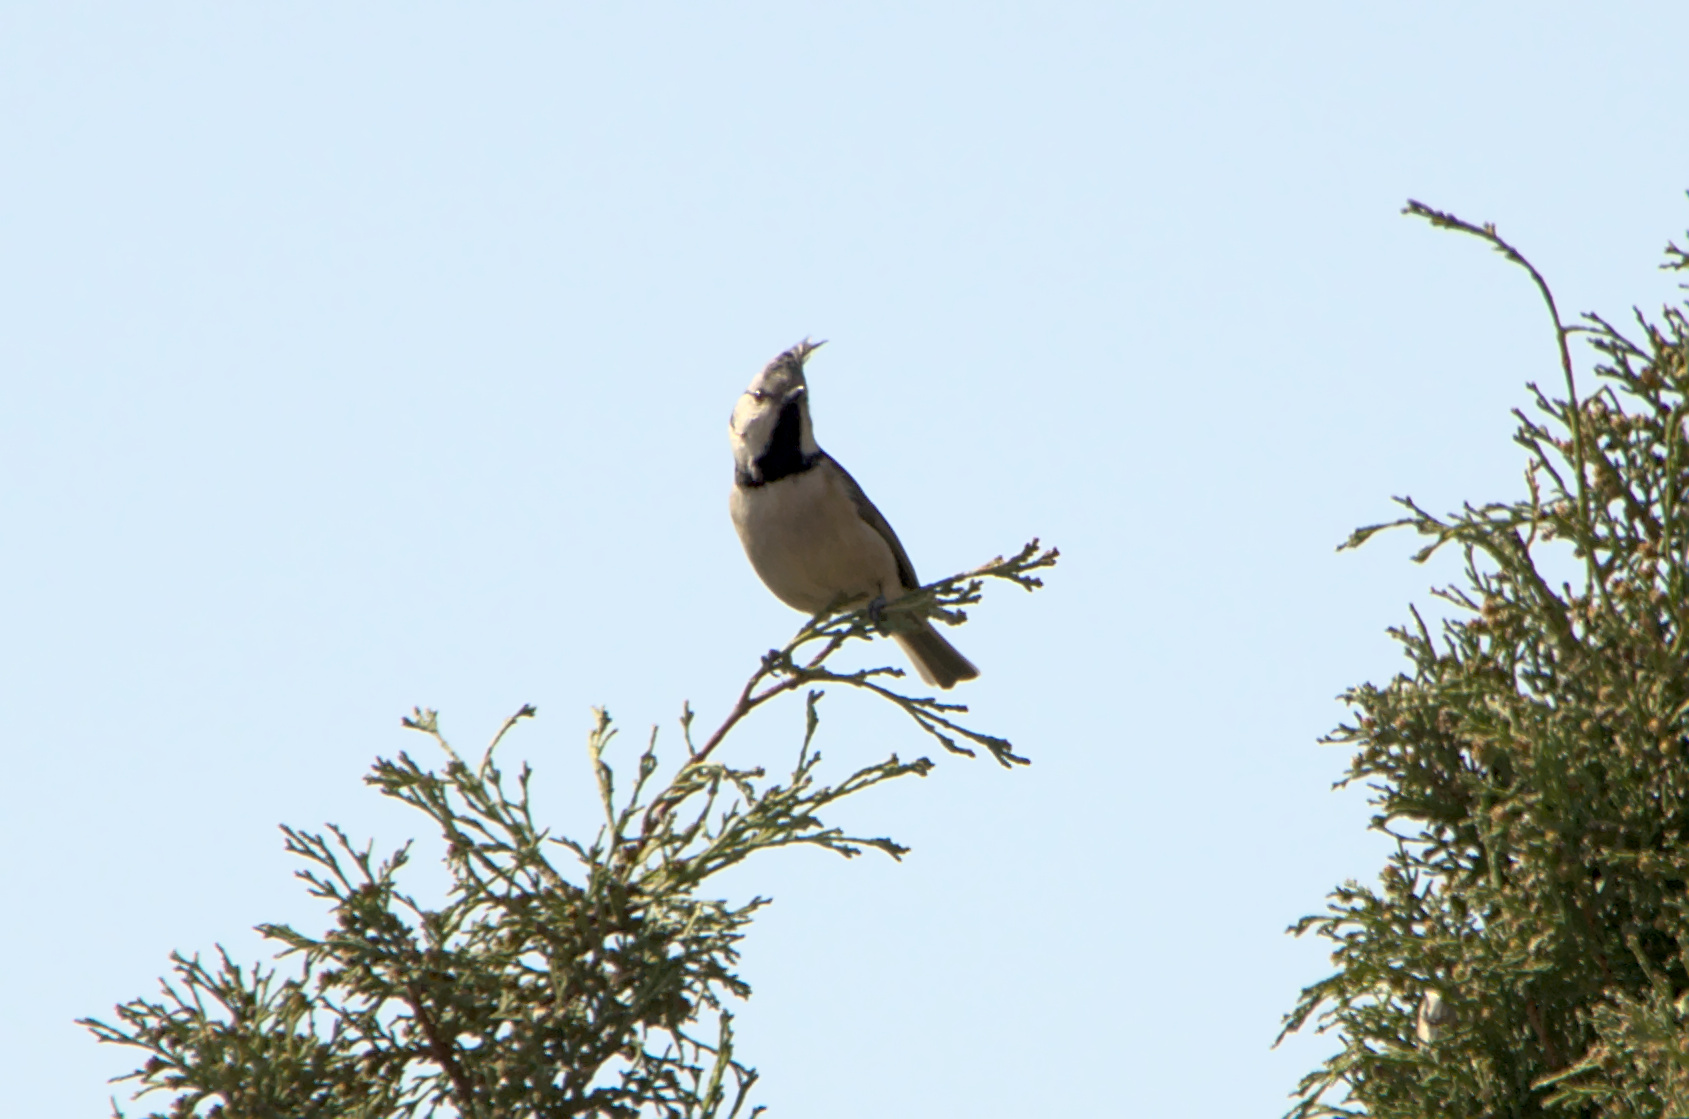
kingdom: Animalia
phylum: Chordata
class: Aves
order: Passeriformes
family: Paridae
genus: Lophophanes
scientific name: Lophophanes cristatus
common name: European crested tit
